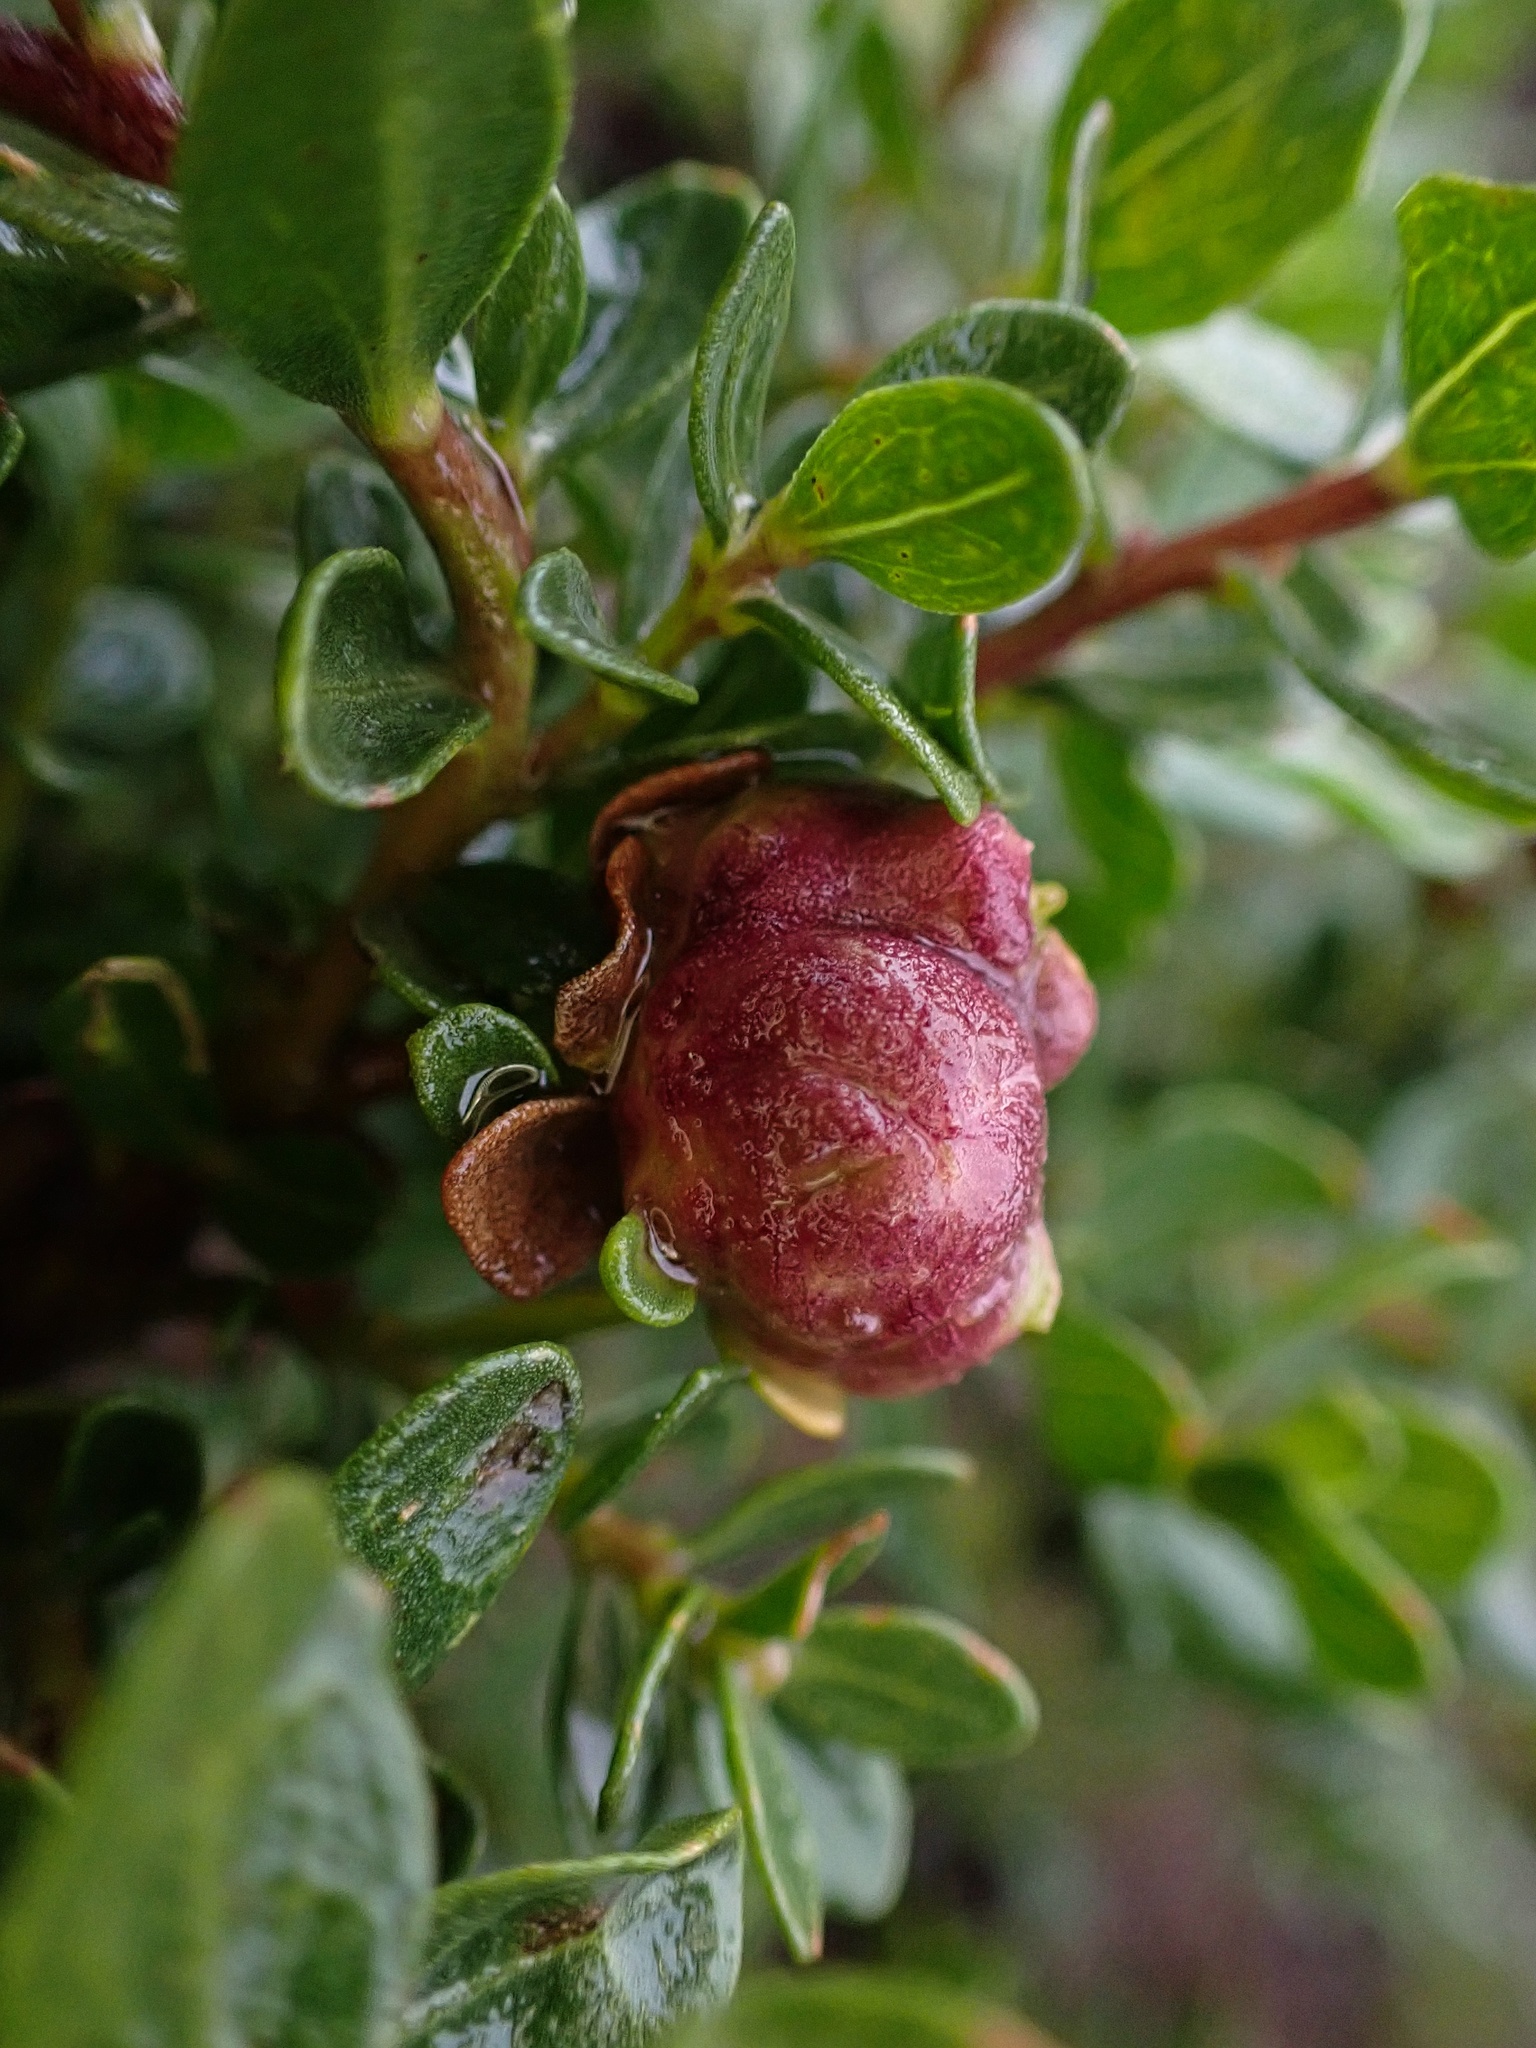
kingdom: Animalia
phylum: Arthropoda
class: Insecta
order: Diptera
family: Cecidomyiidae
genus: Rhopalomyia
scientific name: Rhopalomyia californica
